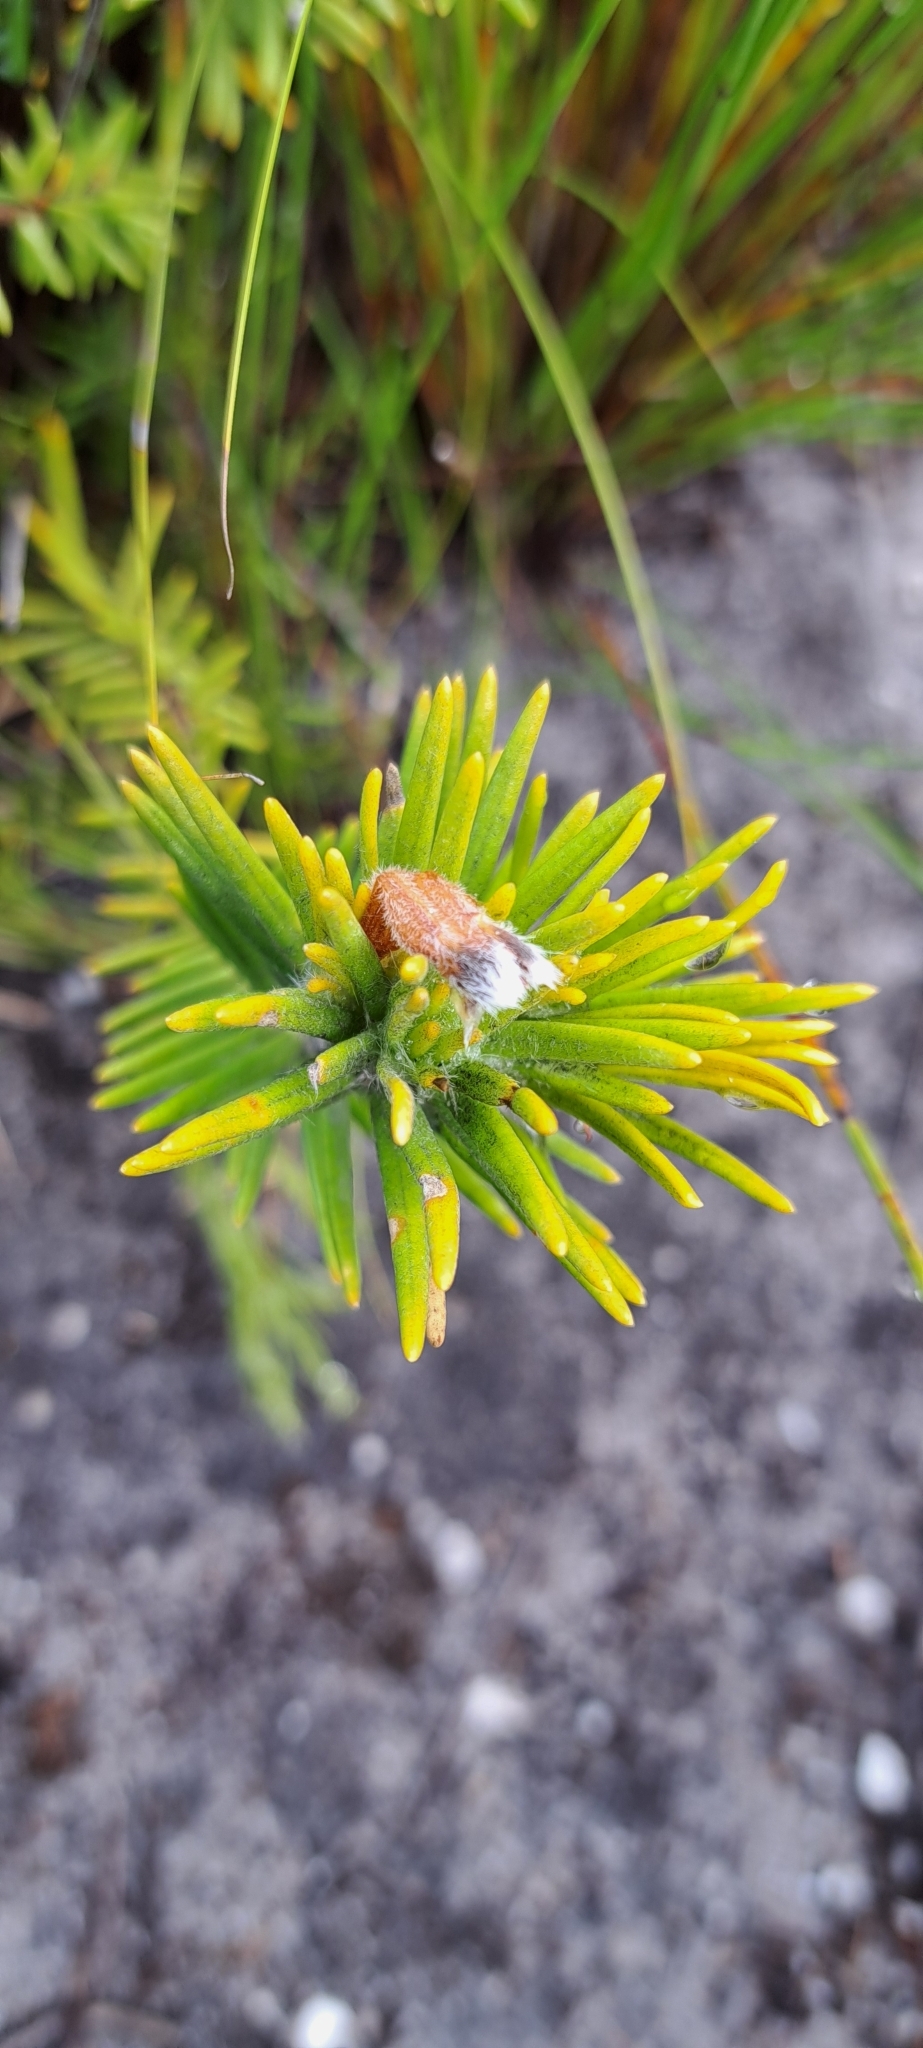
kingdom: Plantae
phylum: Tracheophyta
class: Magnoliopsida
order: Lamiales
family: Stilbaceae
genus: Retzia
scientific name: Retzia capensis
